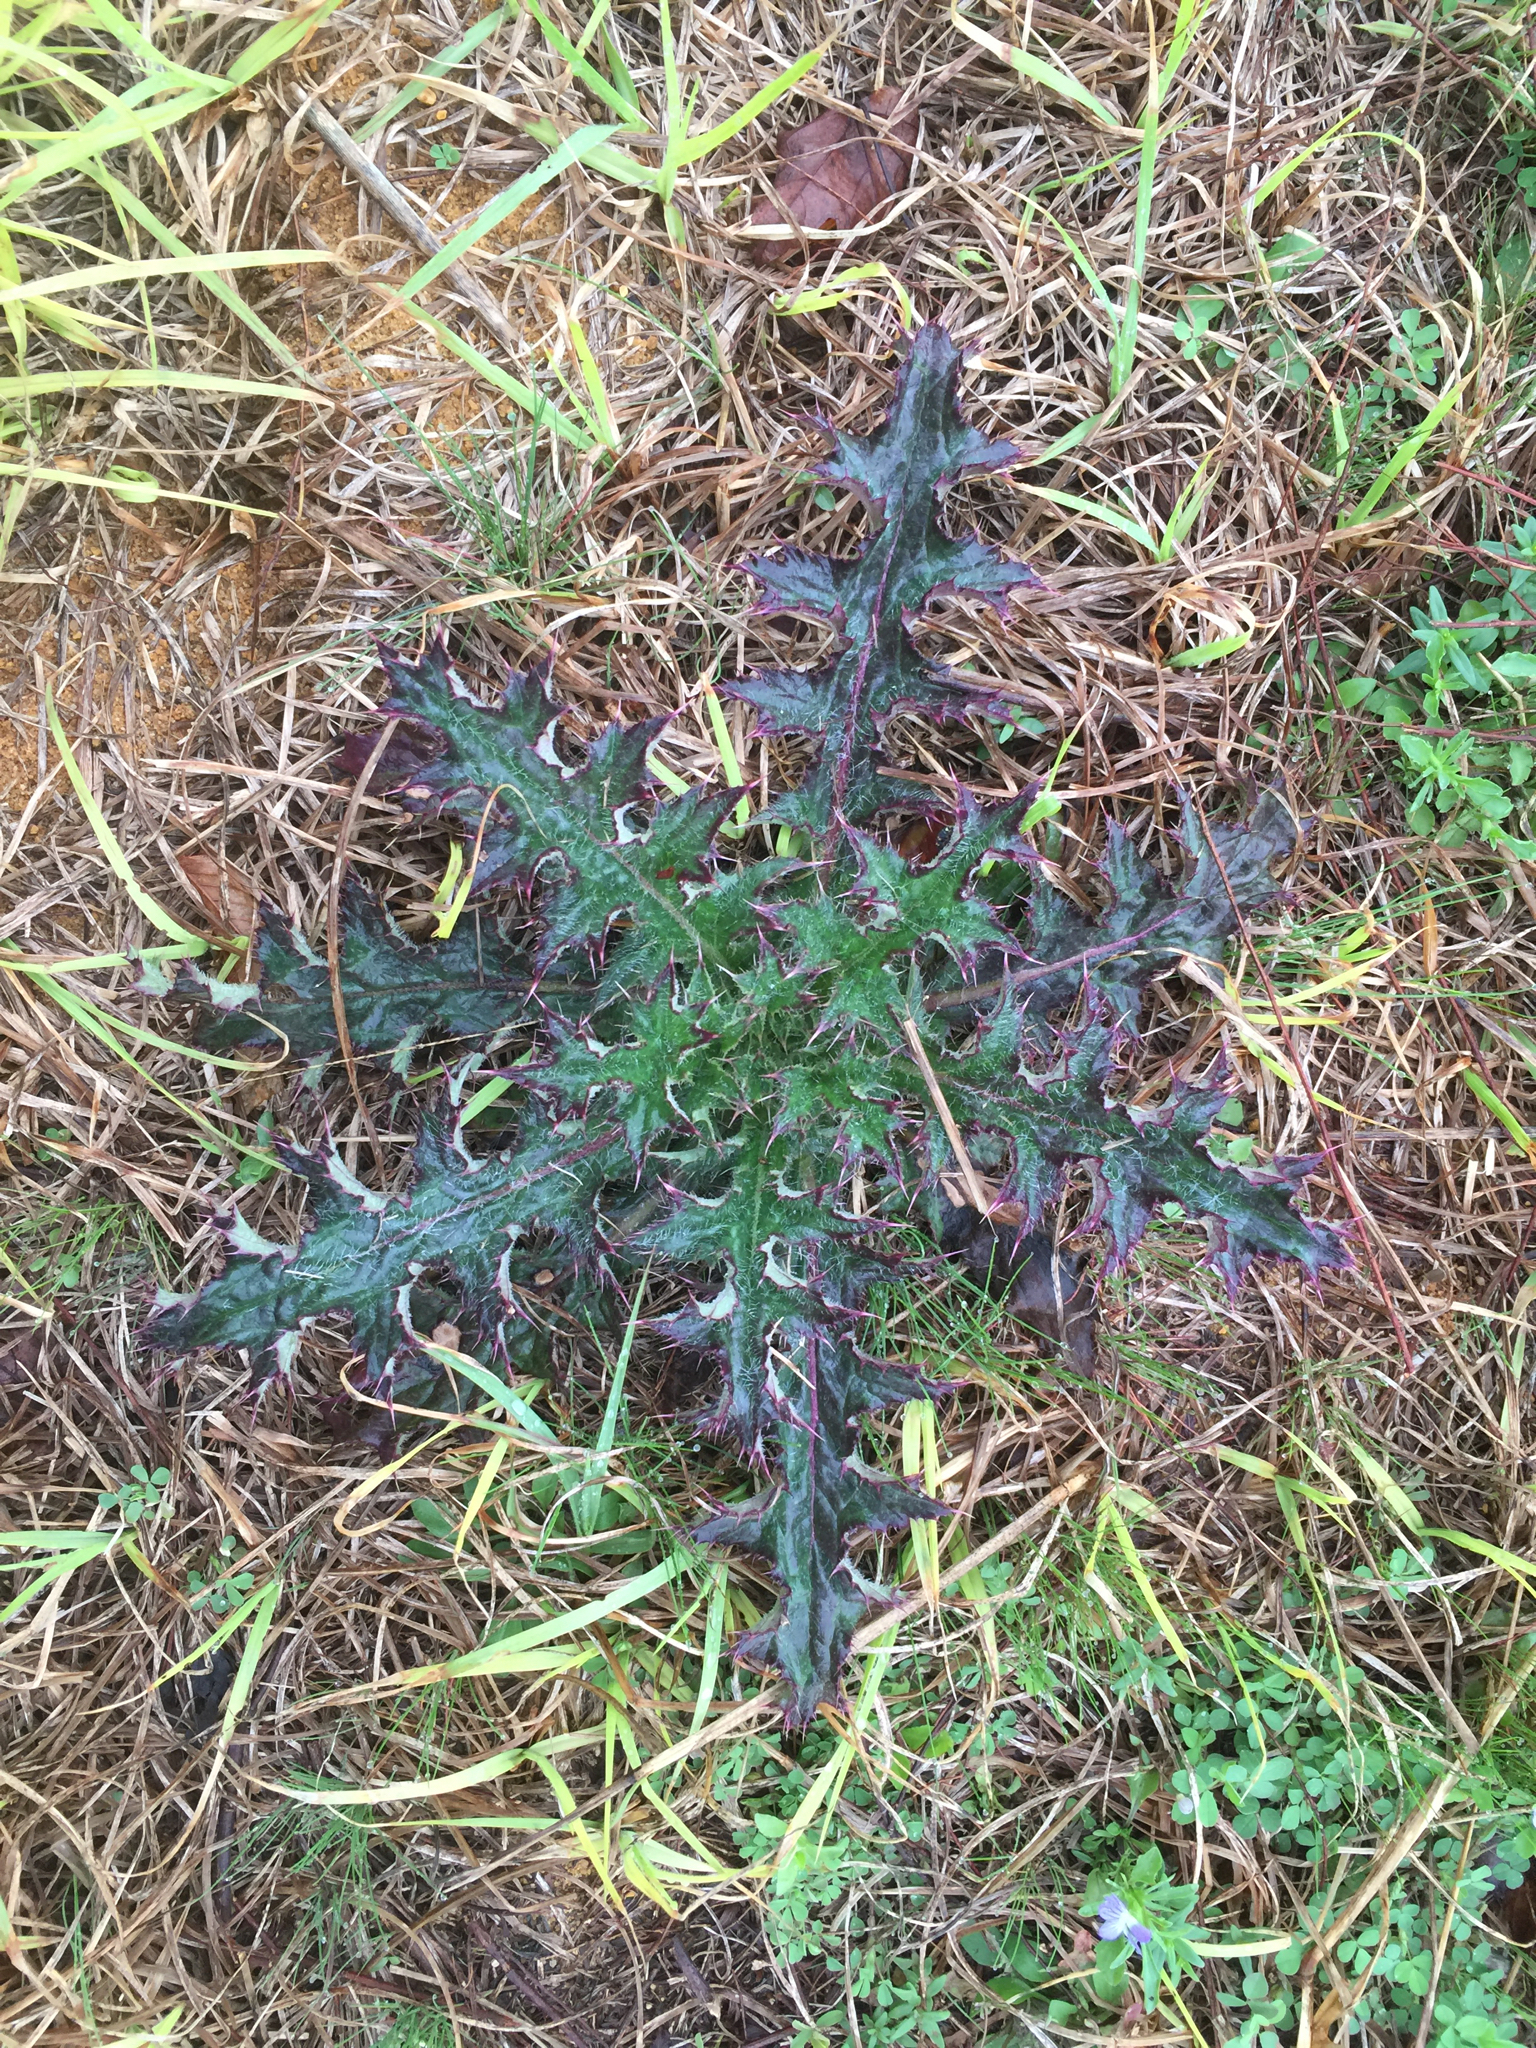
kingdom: Plantae
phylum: Tracheophyta
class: Magnoliopsida
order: Asterales
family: Asteraceae
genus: Cirsium
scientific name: Cirsium horridulum
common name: Bristly thistle
